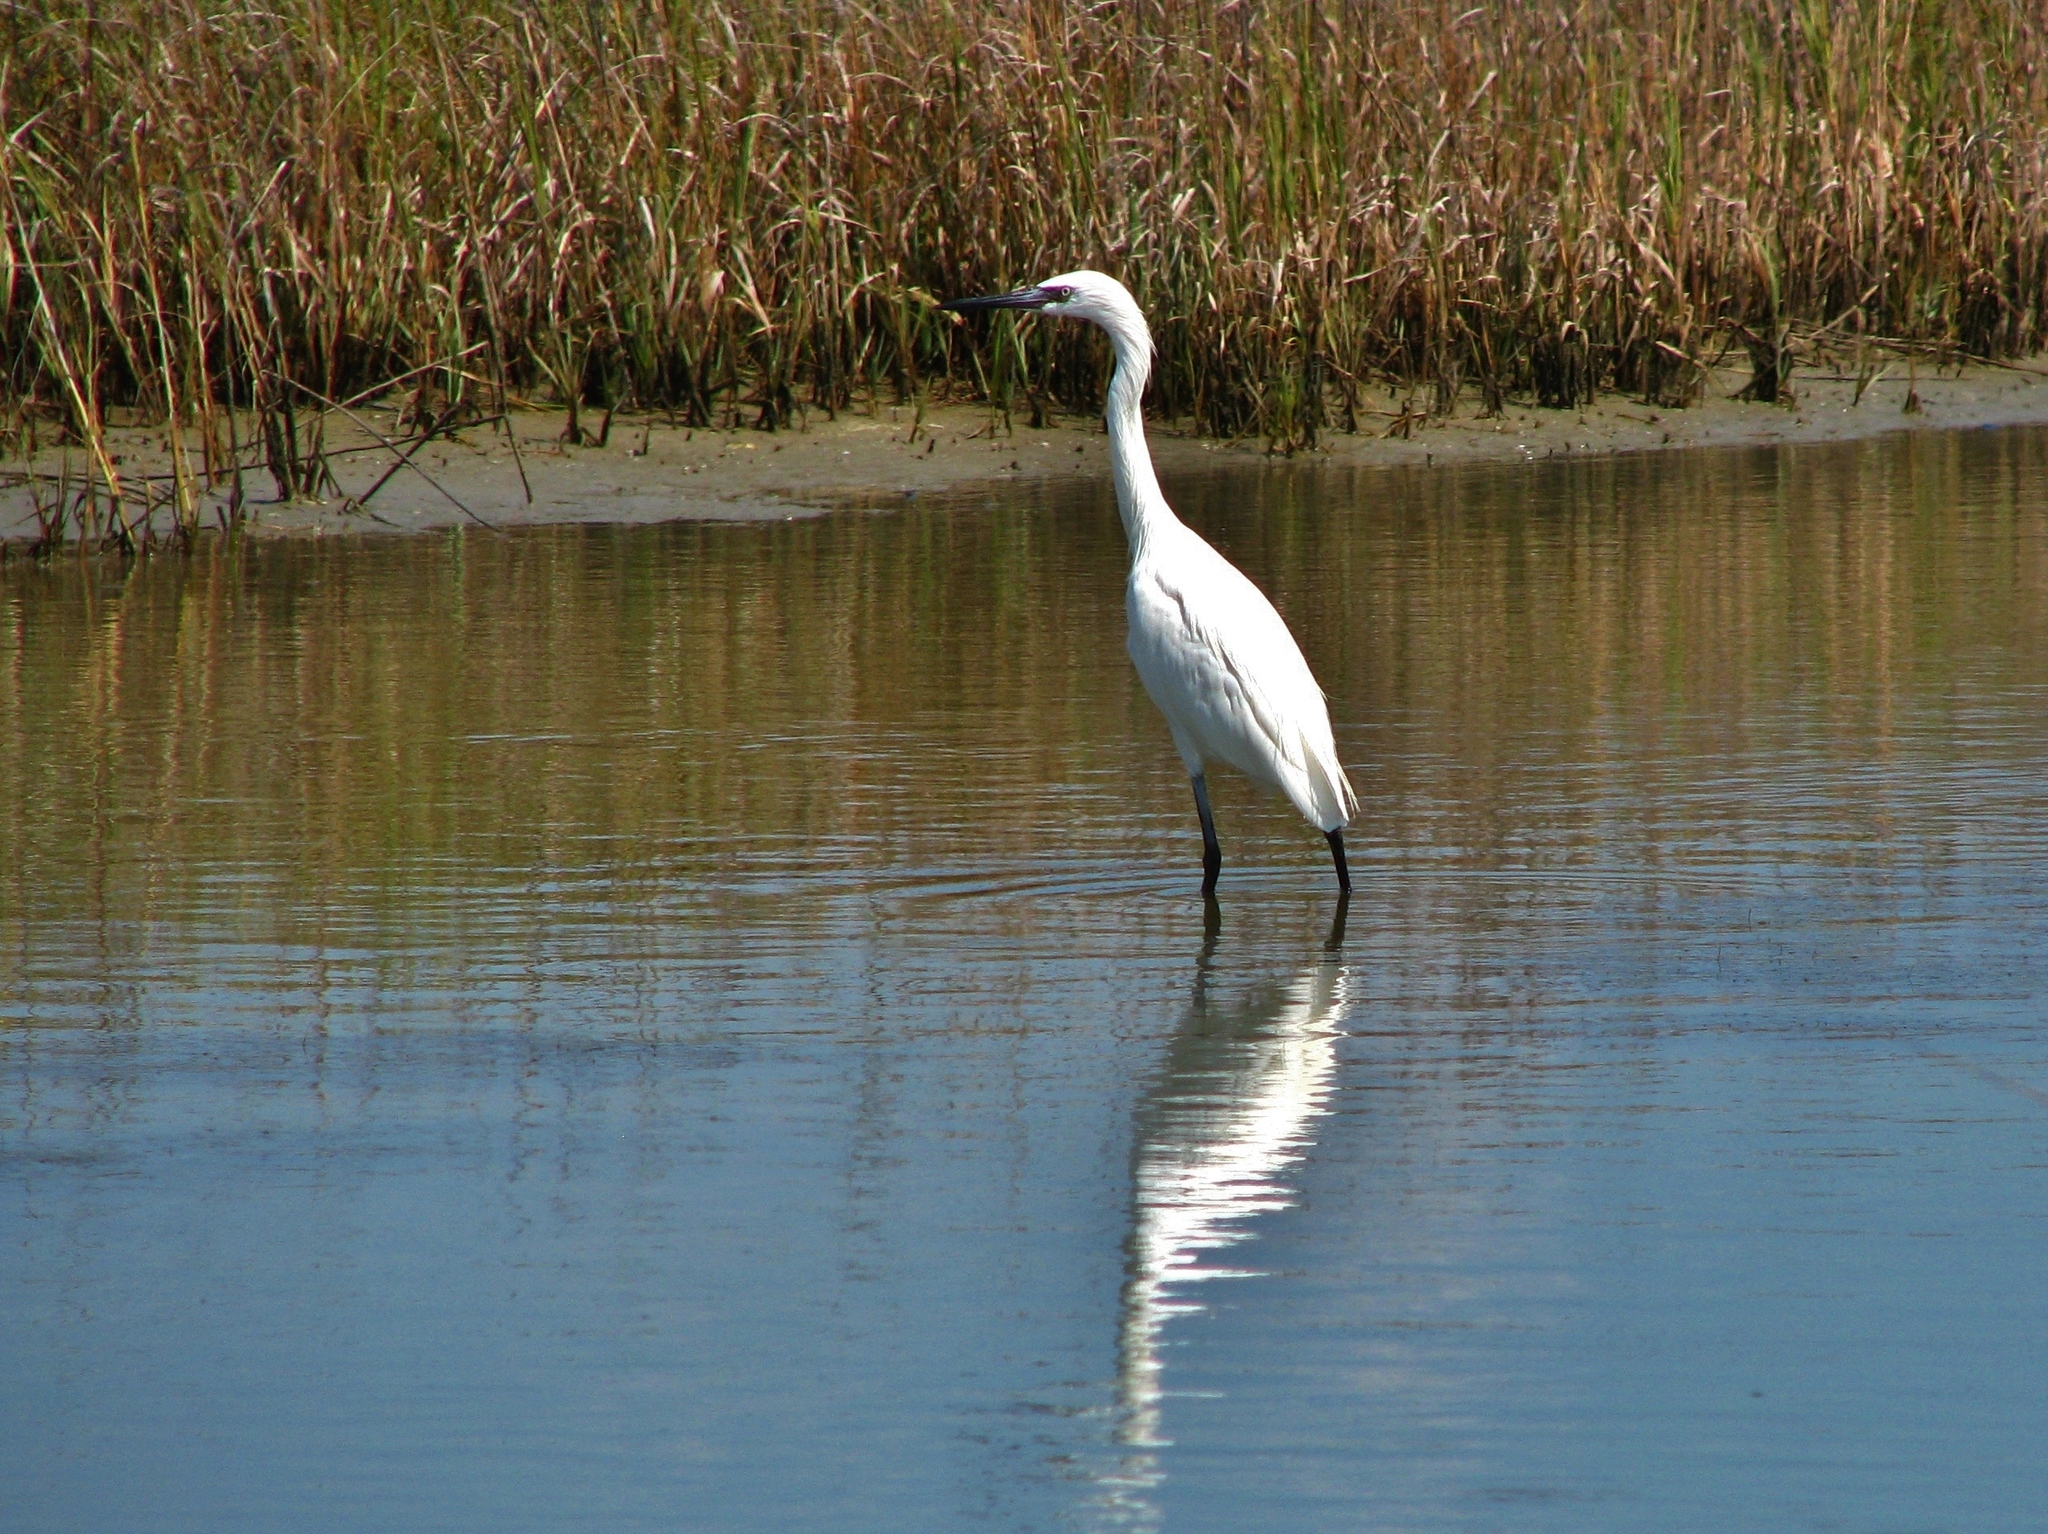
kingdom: Animalia
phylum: Chordata
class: Aves
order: Pelecaniformes
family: Ardeidae
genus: Egretta
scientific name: Egretta rufescens
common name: Reddish egret
